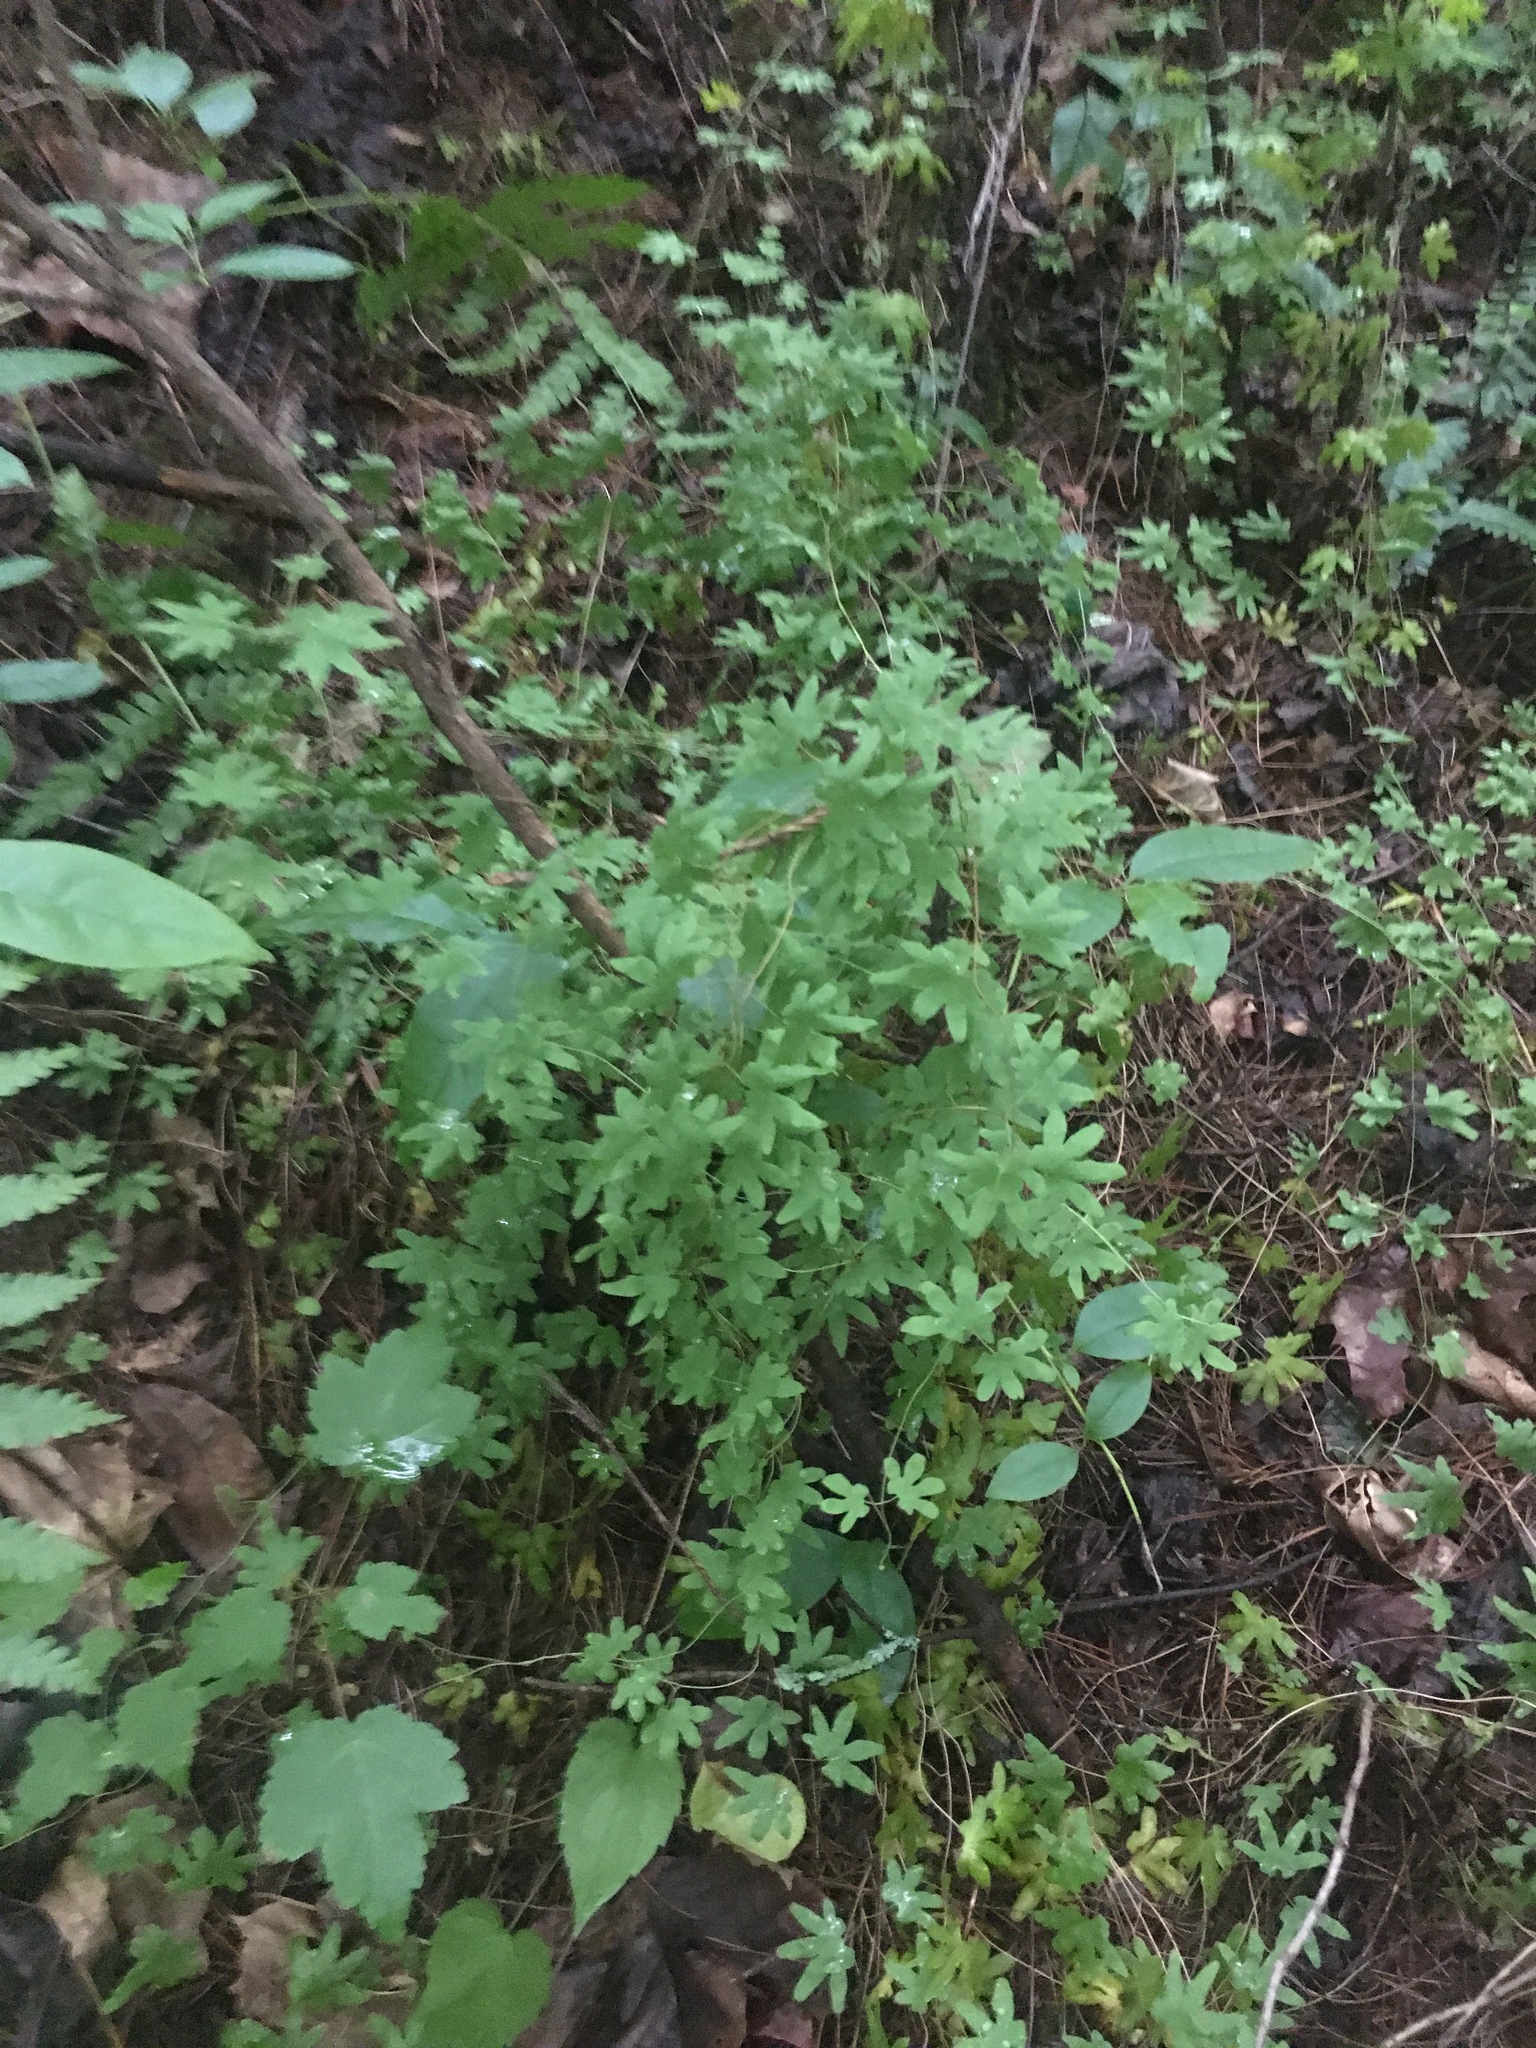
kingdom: Plantae
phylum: Tracheophyta
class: Polypodiopsida
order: Schizaeales
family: Lygodiaceae
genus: Lygodium
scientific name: Lygodium palmatum
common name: American climbing fern
